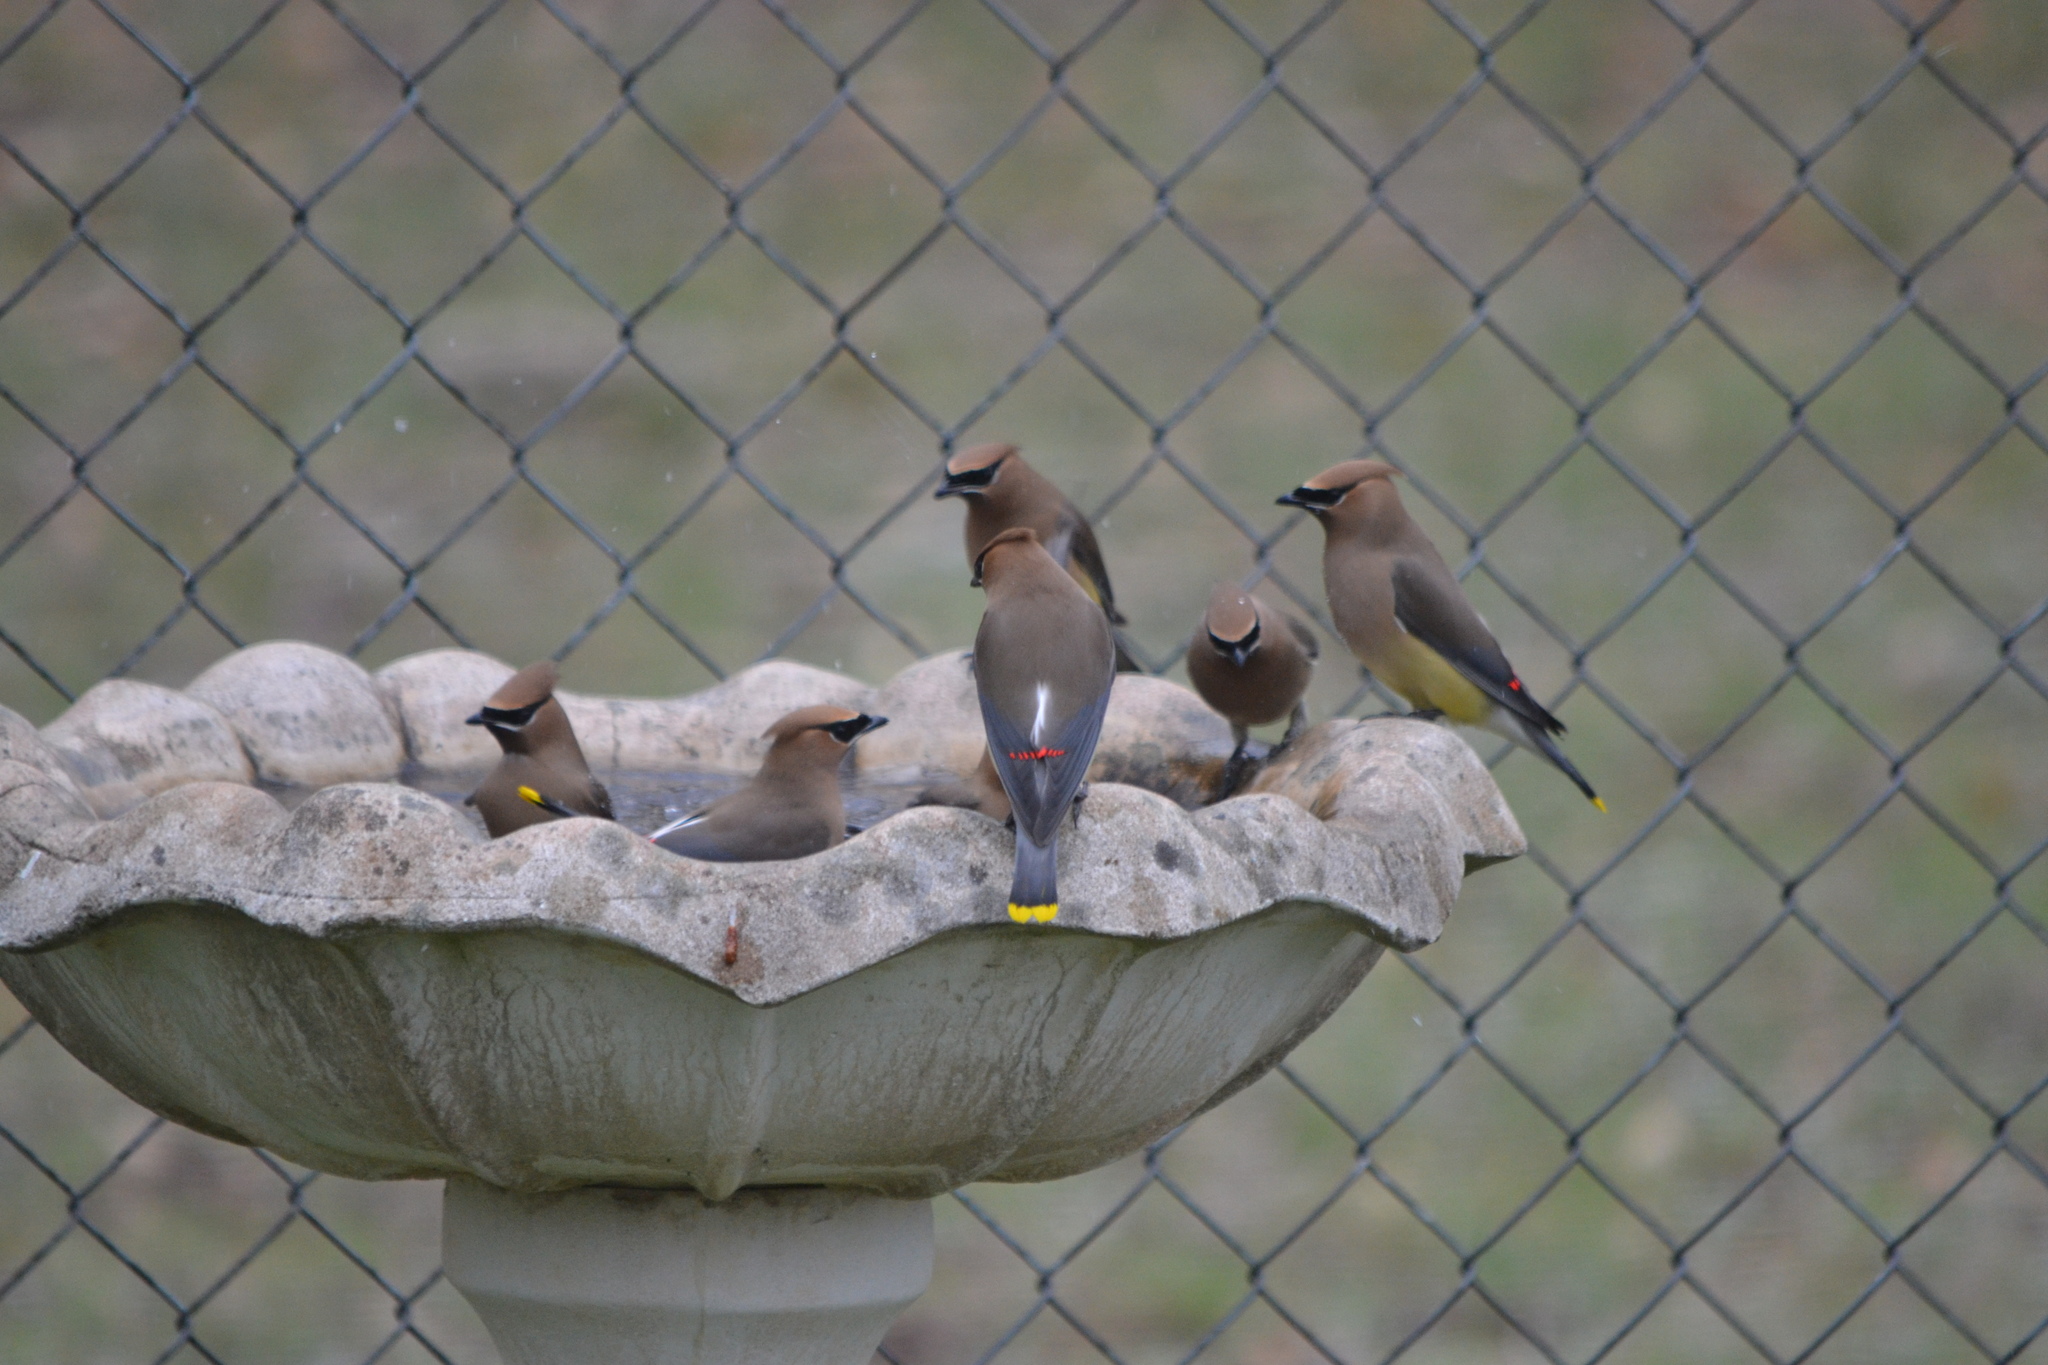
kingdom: Animalia
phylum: Chordata
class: Aves
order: Passeriformes
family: Bombycillidae
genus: Bombycilla
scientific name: Bombycilla cedrorum
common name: Cedar waxwing
